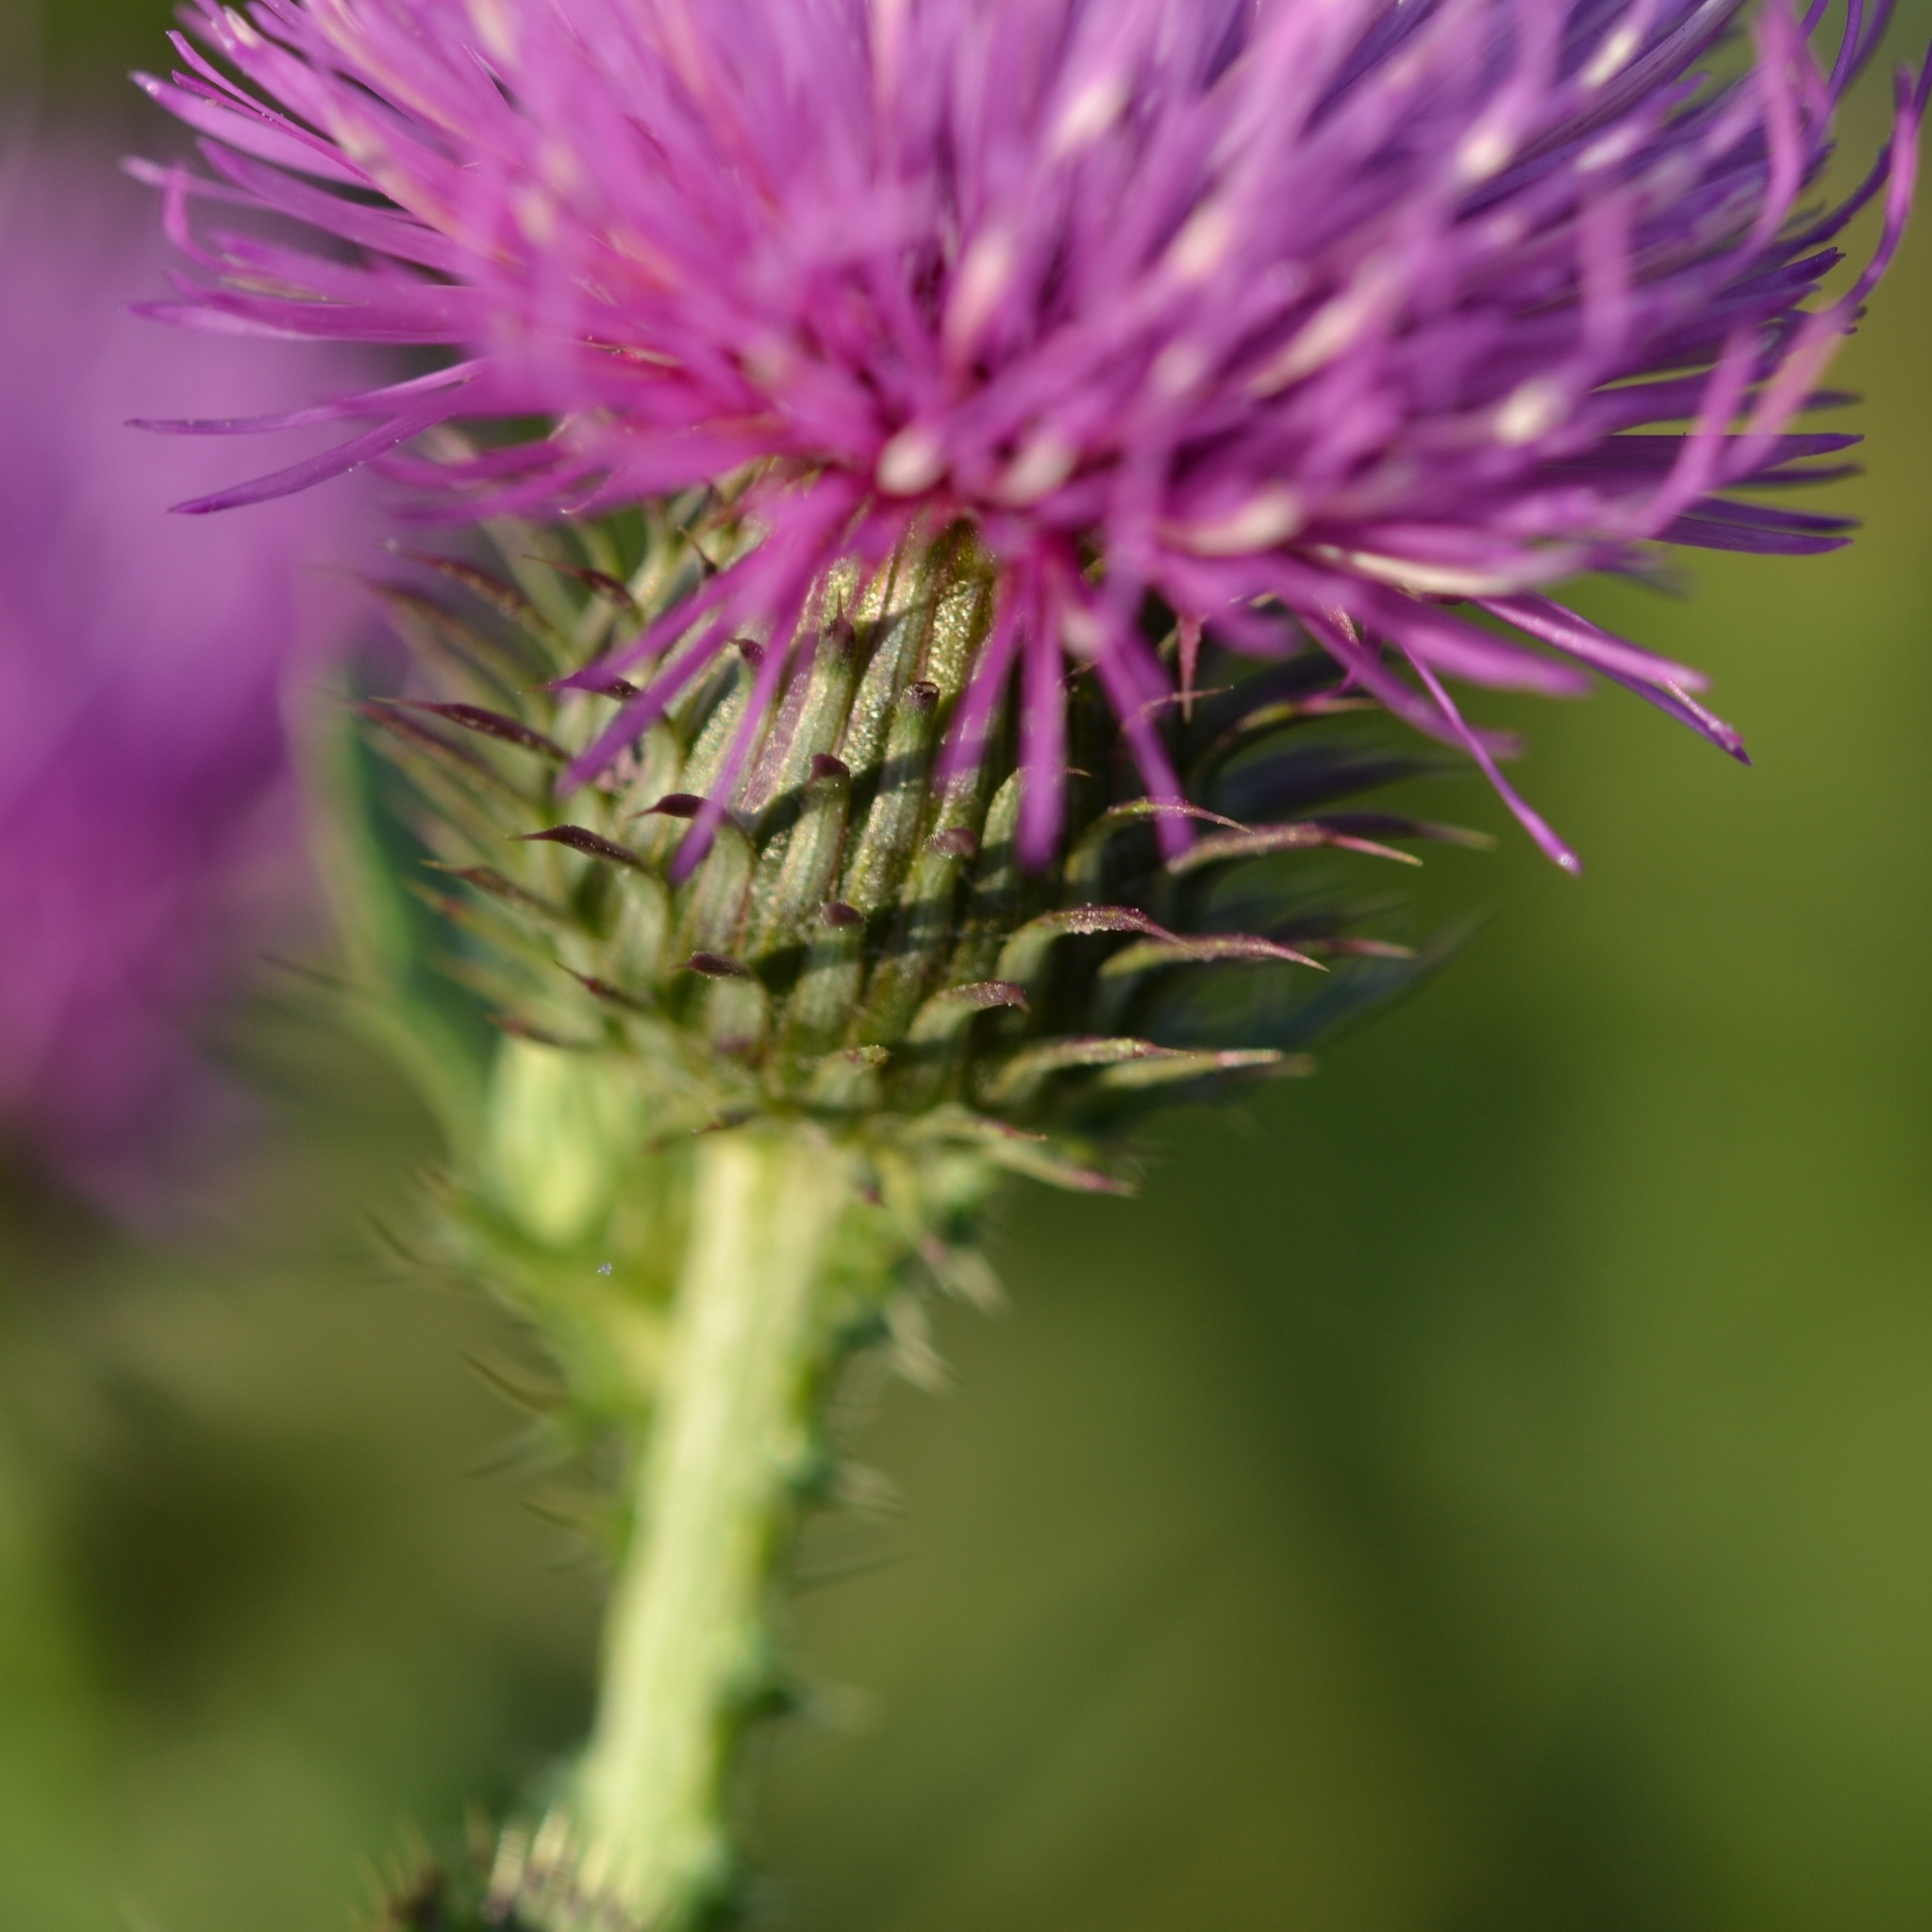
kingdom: Plantae
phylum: Tracheophyta
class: Magnoliopsida
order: Asterales
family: Asteraceae
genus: Carduus
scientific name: Carduus acanthoides
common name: Plumeless thistle
